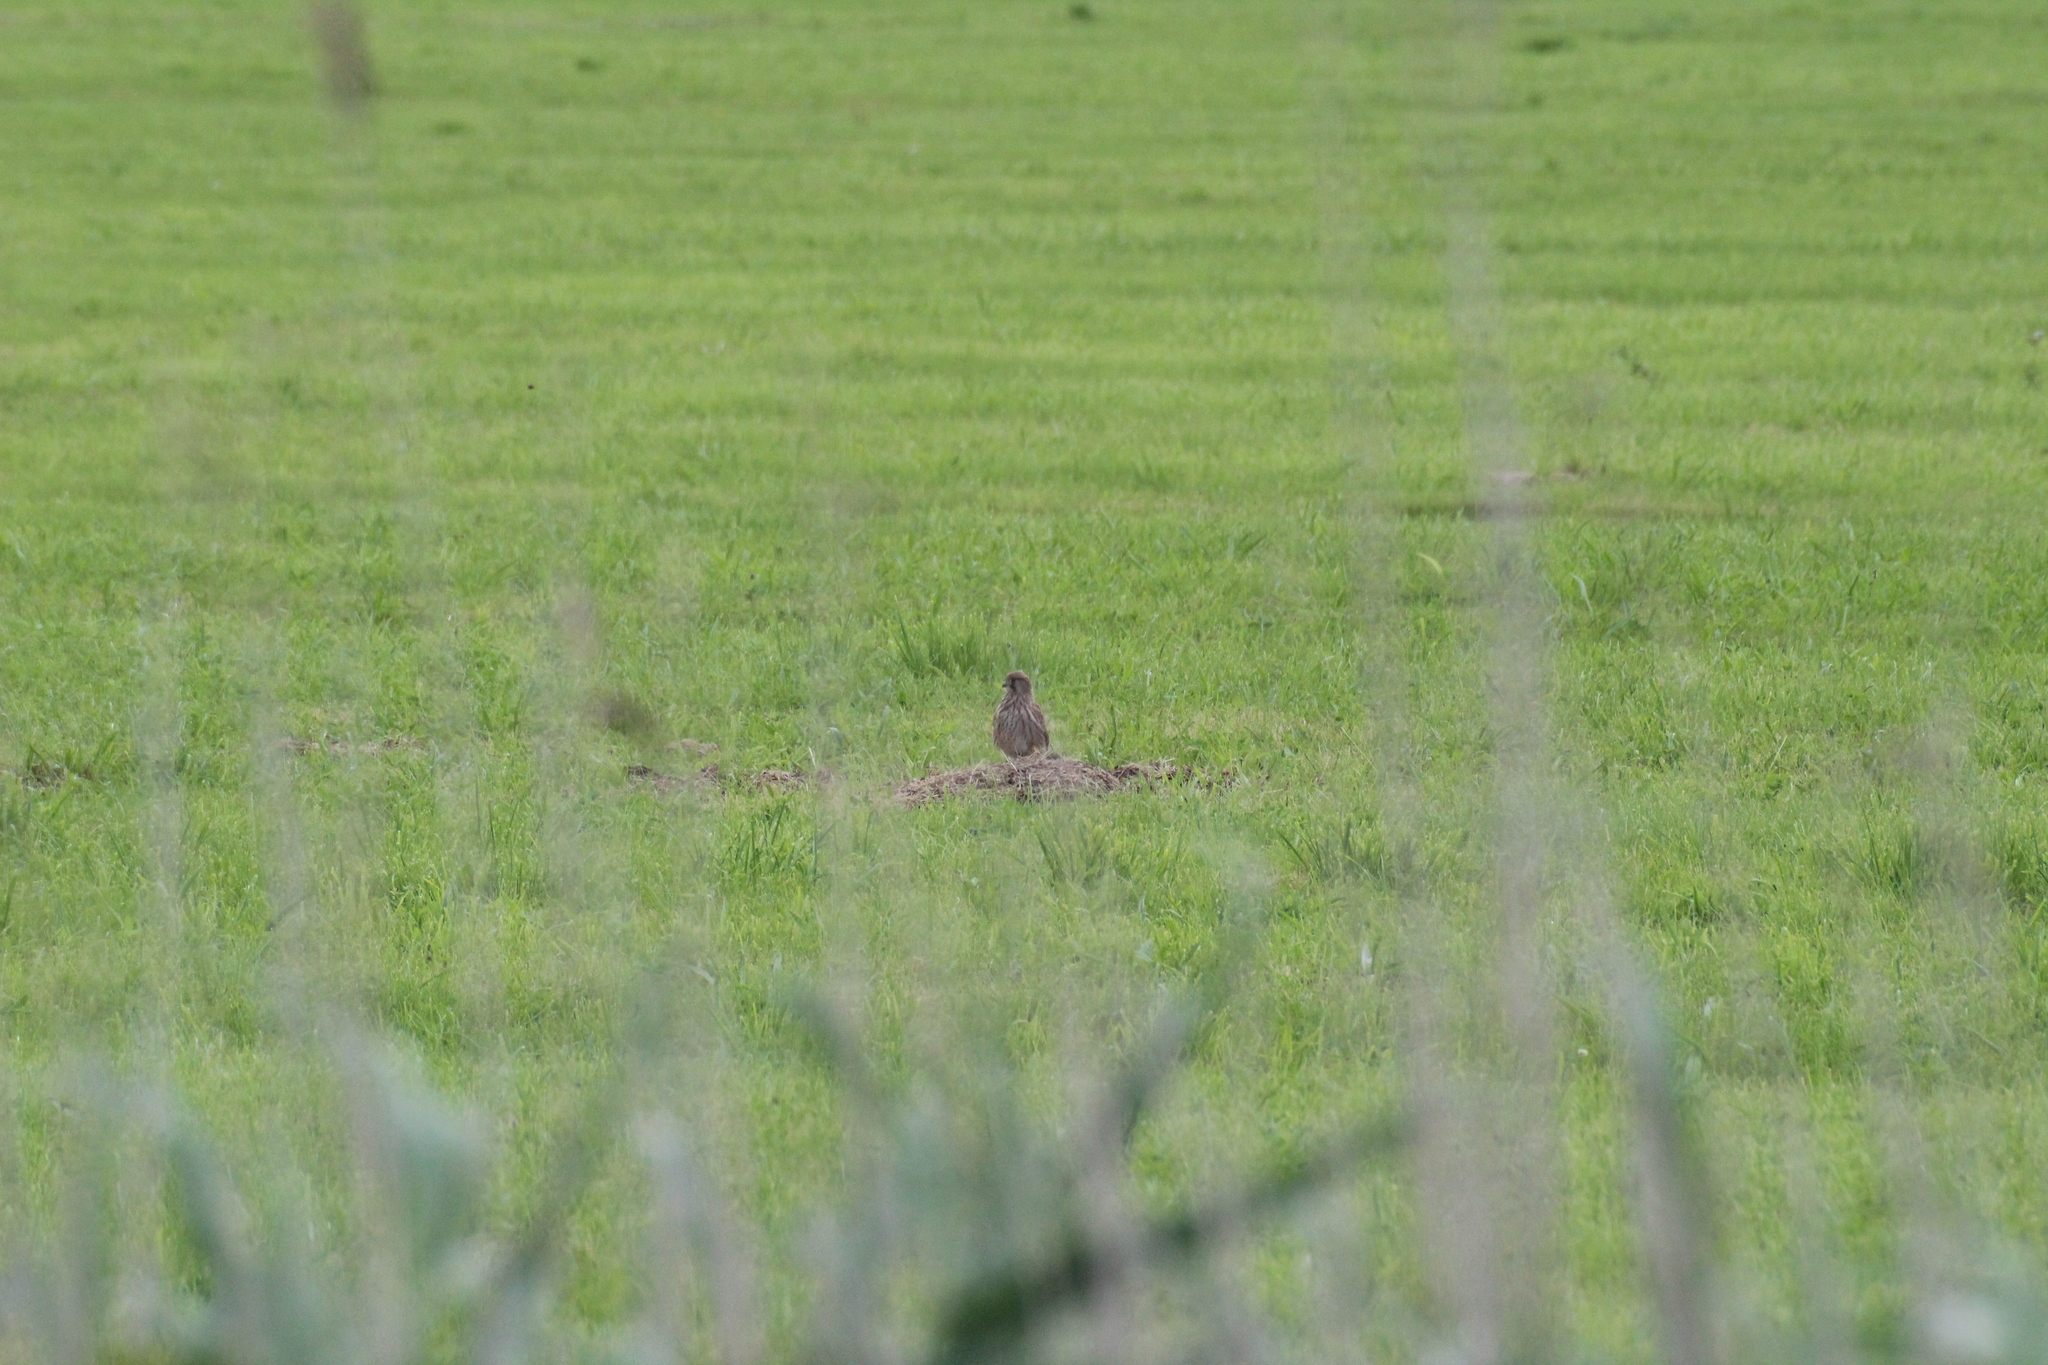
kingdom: Animalia
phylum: Chordata
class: Aves
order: Falconiformes
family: Falconidae
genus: Falco
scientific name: Falco tinnunculus
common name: Common kestrel
